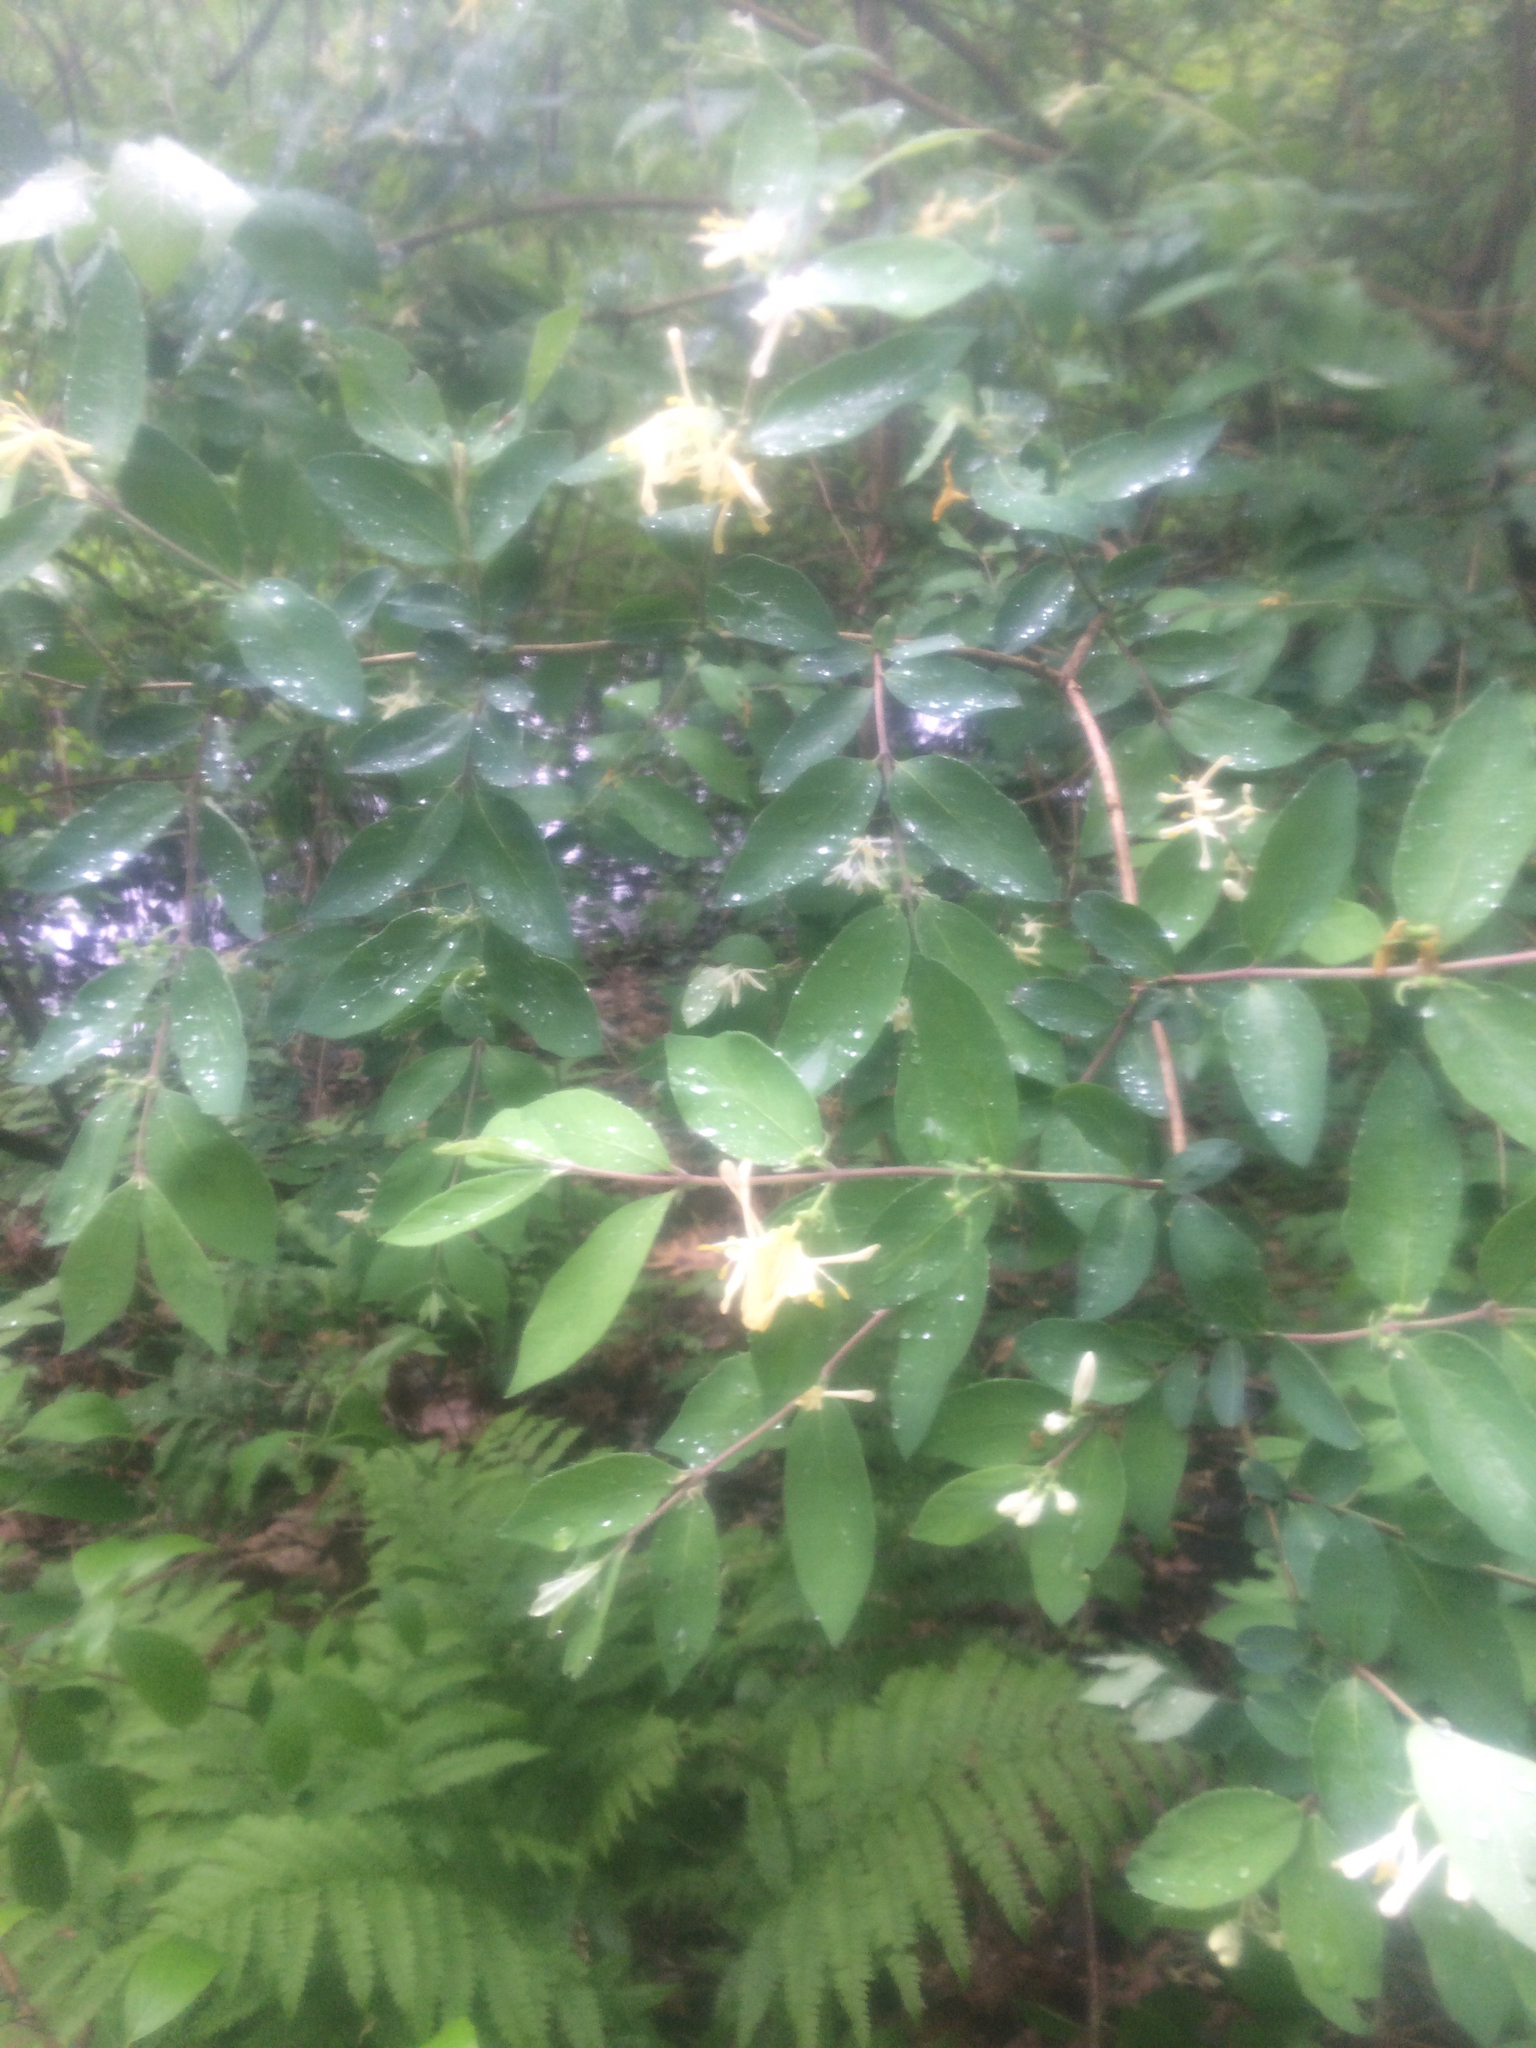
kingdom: Plantae
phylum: Tracheophyta
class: Magnoliopsida
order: Dipsacales
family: Caprifoliaceae
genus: Lonicera
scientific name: Lonicera morrowii
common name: Morrow's honeysuckle
